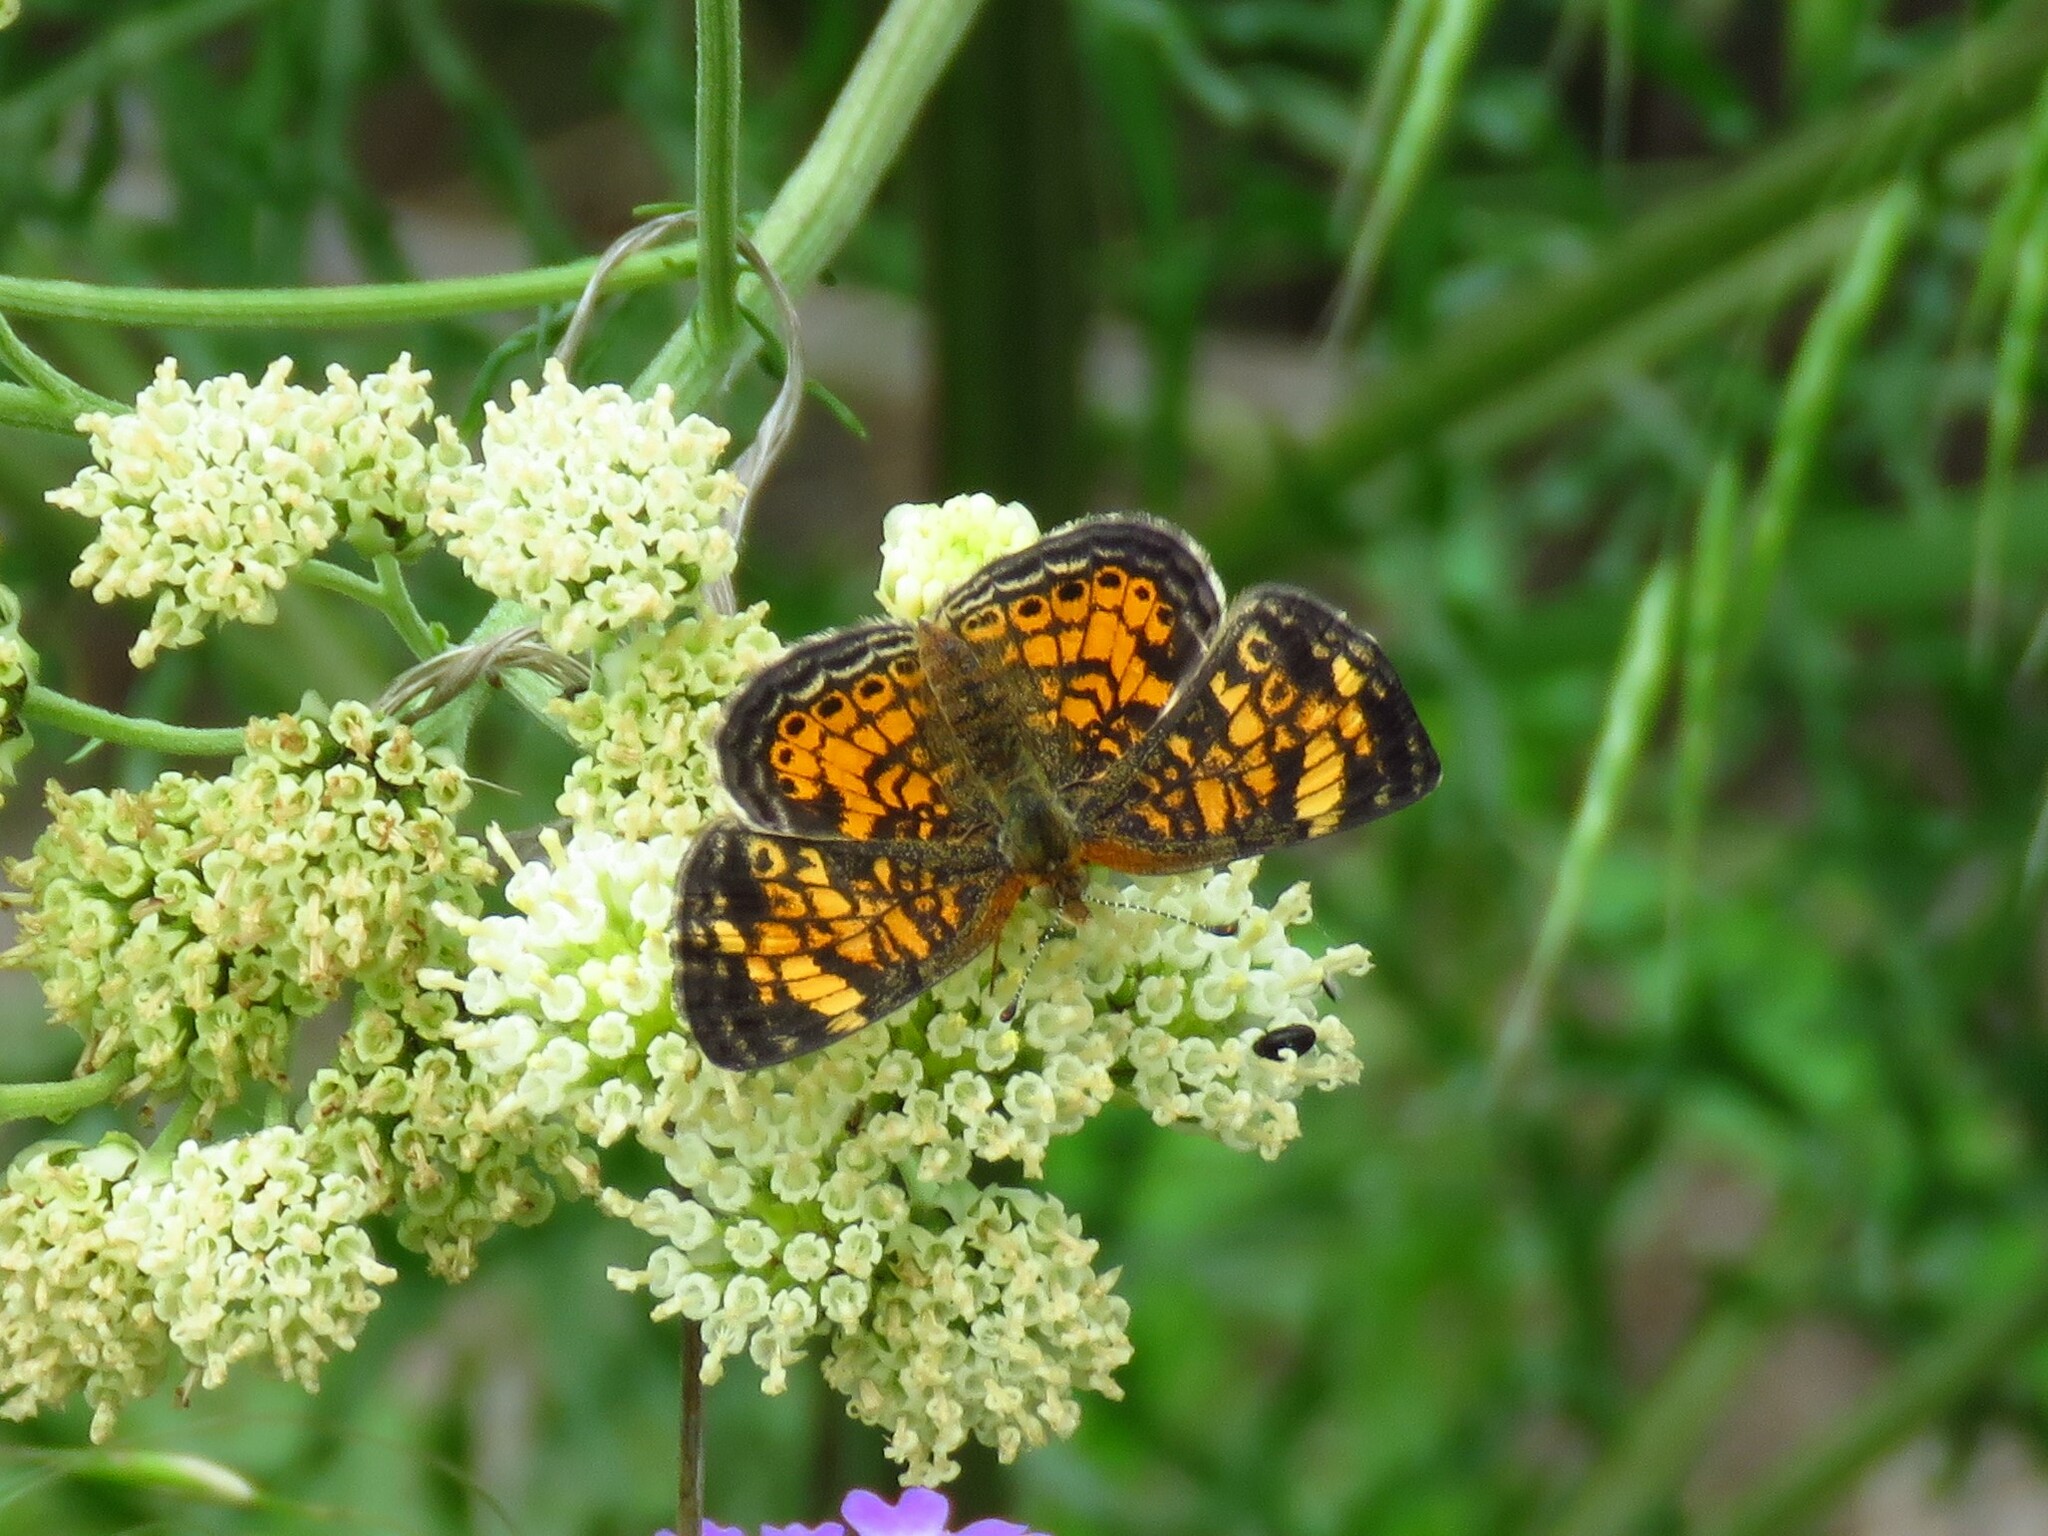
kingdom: Animalia
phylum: Arthropoda
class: Insecta
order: Lepidoptera
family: Nymphalidae
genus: Phyciodes
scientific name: Phyciodes tharos
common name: Pearl crescent
